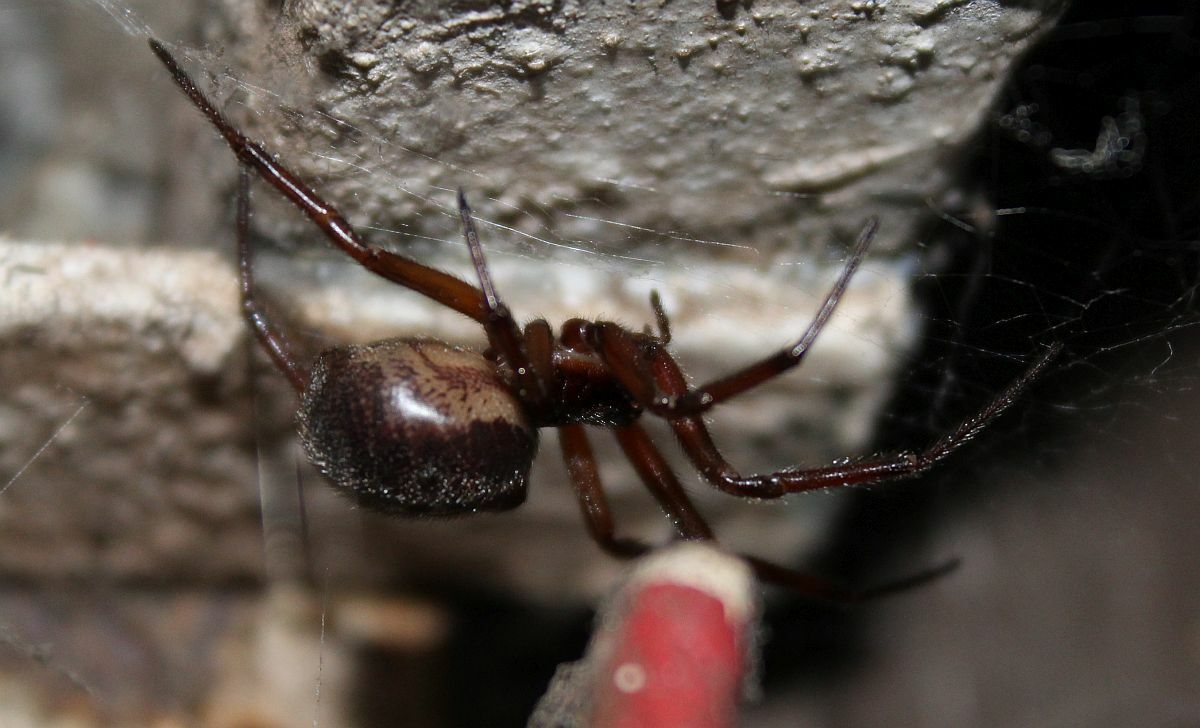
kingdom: Animalia
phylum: Arthropoda
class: Arachnida
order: Araneae
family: Theridiidae
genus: Steatoda
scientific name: Steatoda nobilis
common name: Cobweb weaver
